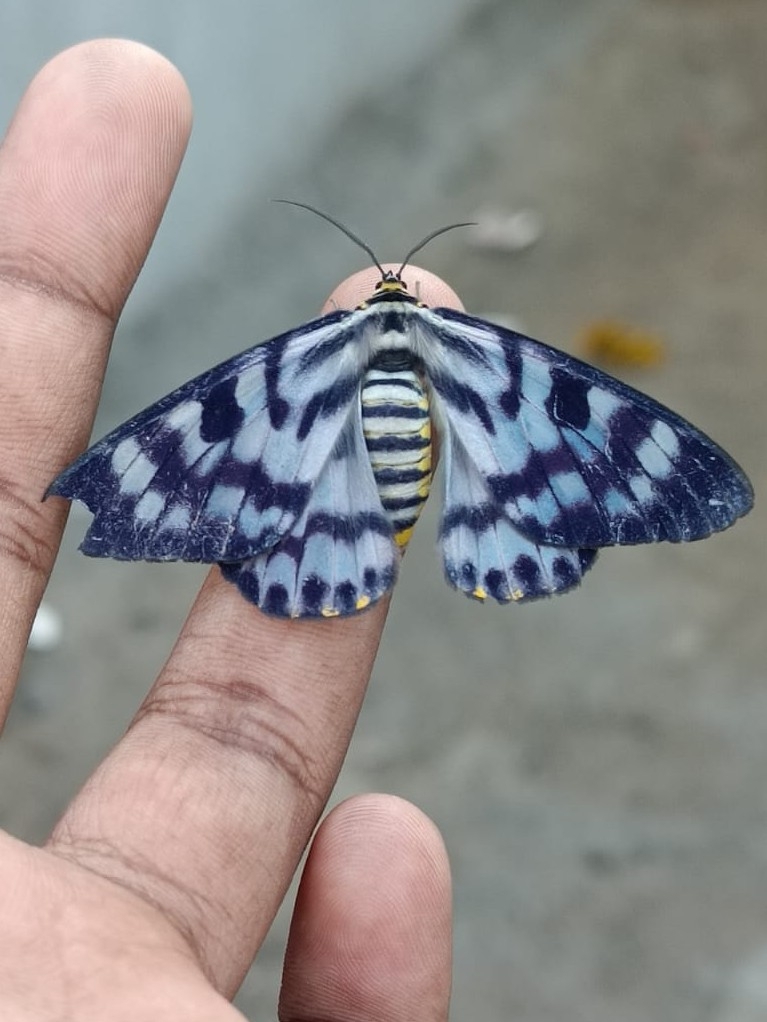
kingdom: Animalia
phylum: Arthropoda
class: Insecta
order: Lepidoptera
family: Geometridae
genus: Dysphania
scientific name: Dysphania nelera
